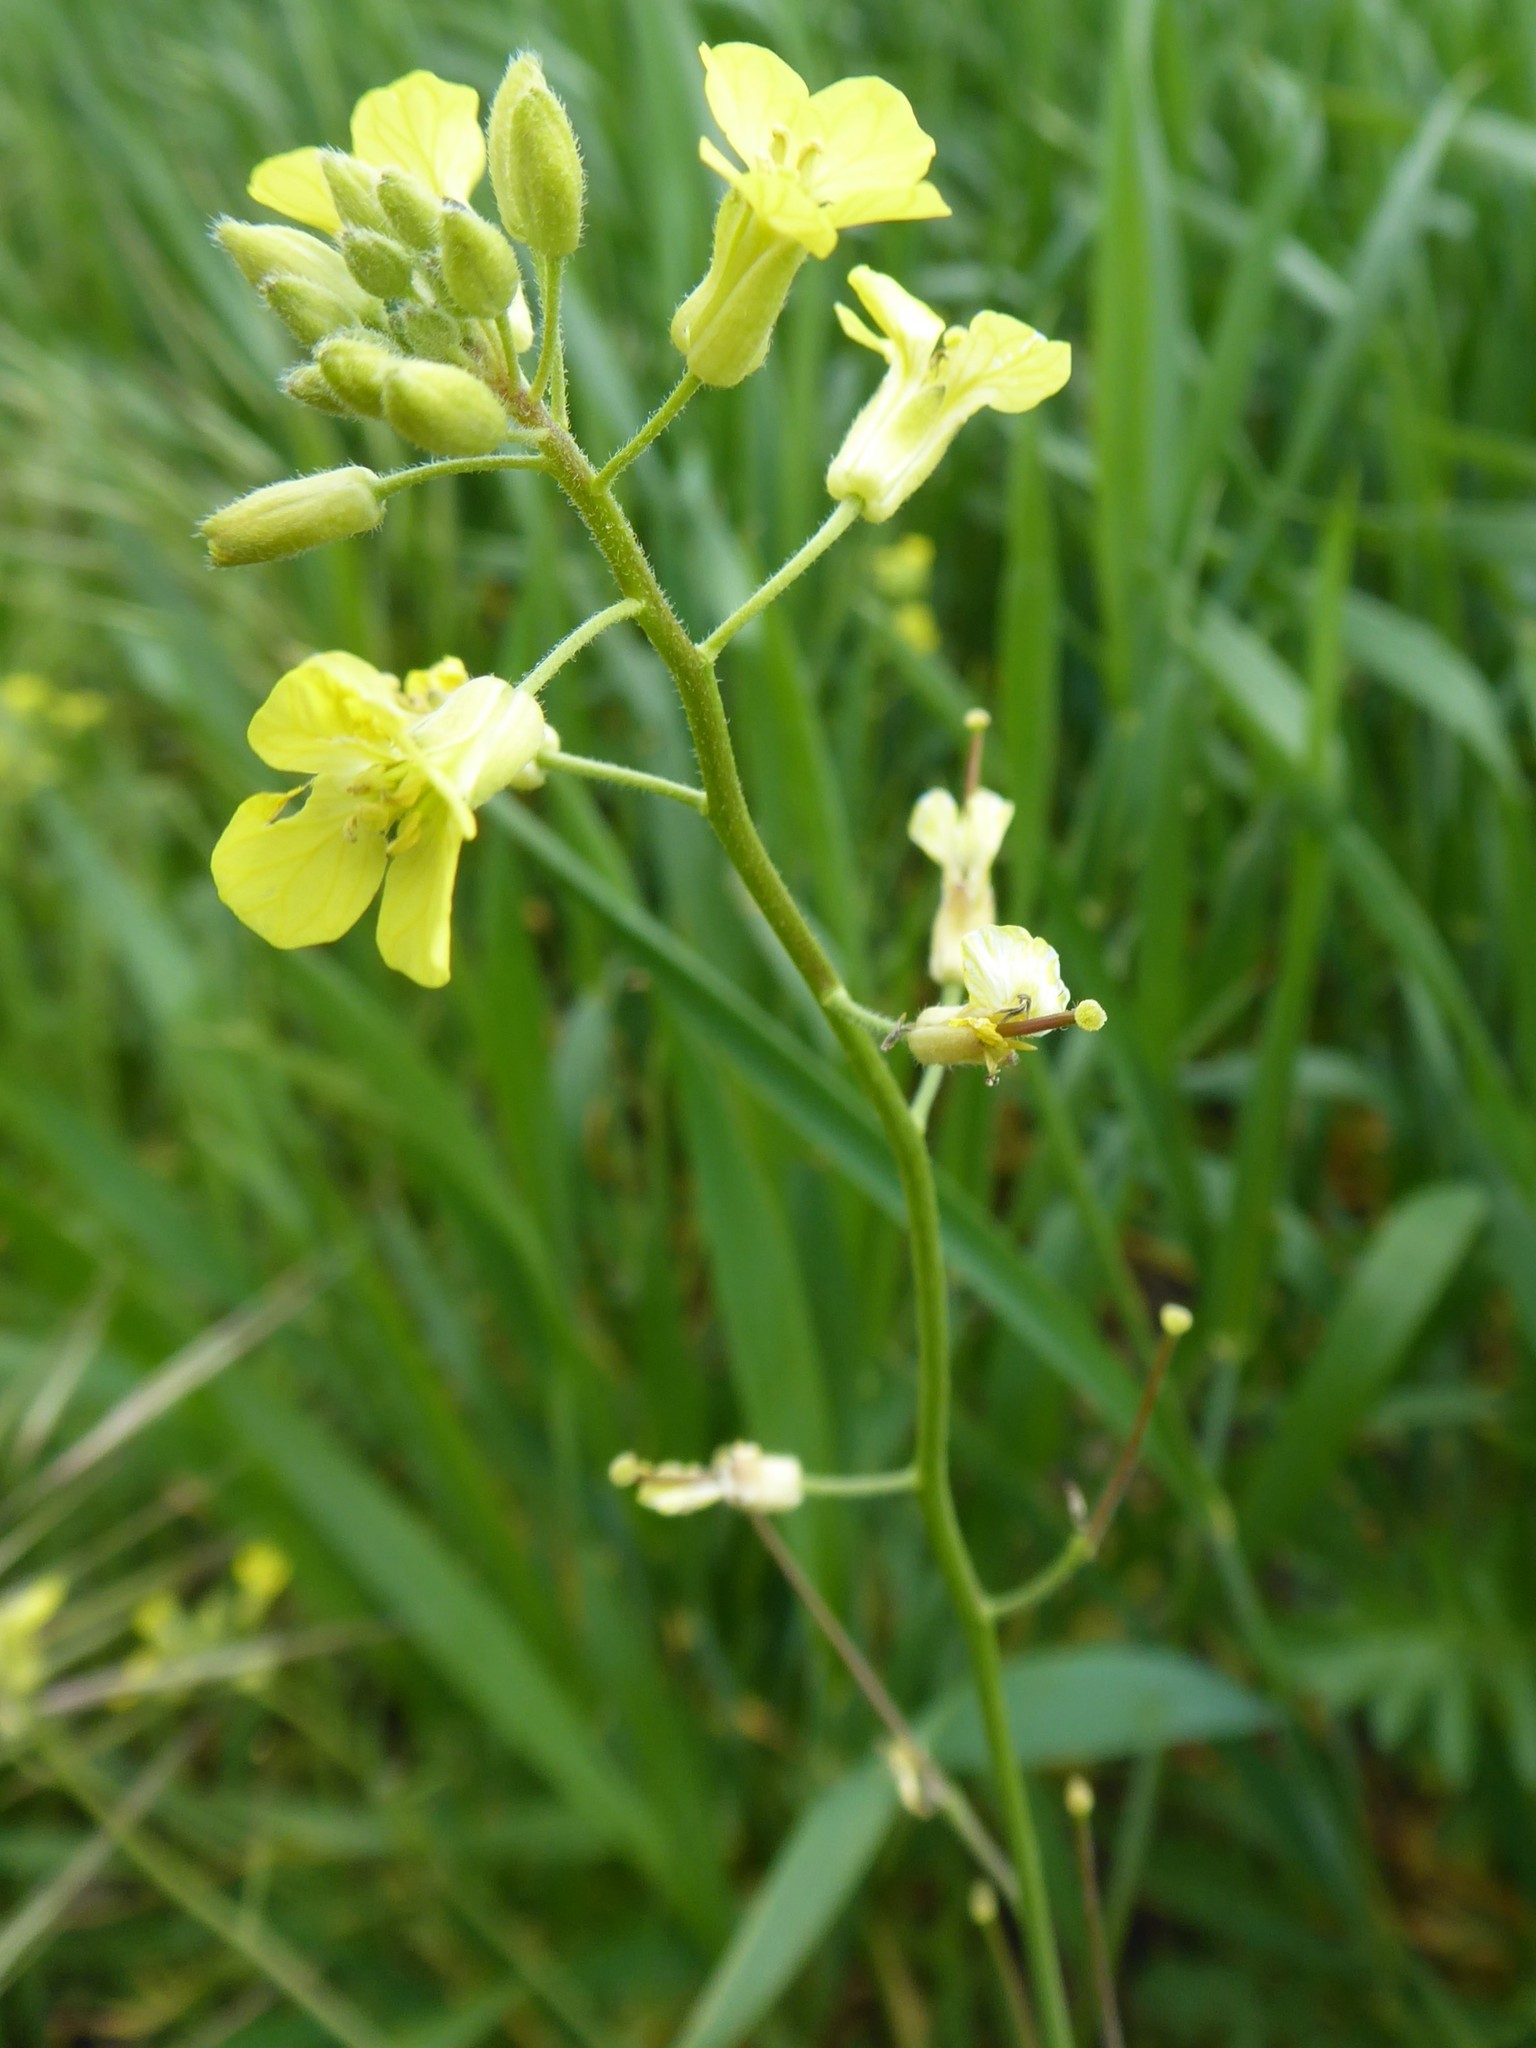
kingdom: Plantae
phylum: Tracheophyta
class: Magnoliopsida
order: Brassicales
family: Brassicaceae
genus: Sisymbrium
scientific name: Sisymbrium orientale
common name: Eastern rocket
